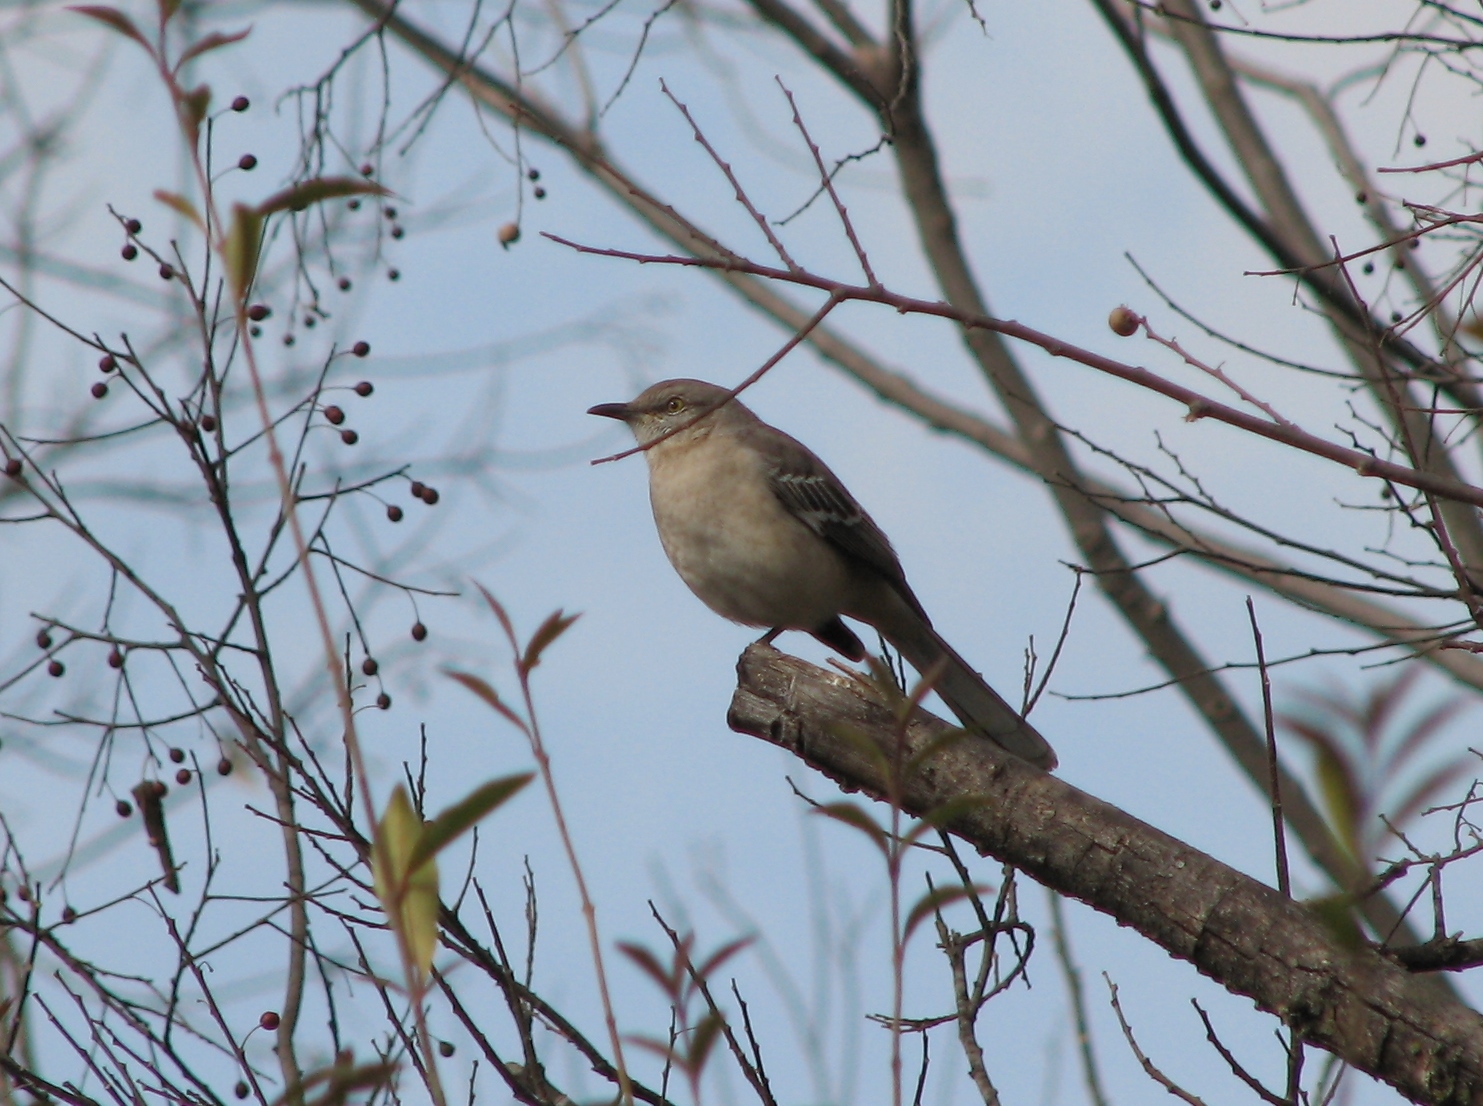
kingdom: Animalia
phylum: Chordata
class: Aves
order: Passeriformes
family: Mimidae
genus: Mimus
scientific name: Mimus polyglottos
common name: Northern mockingbird
